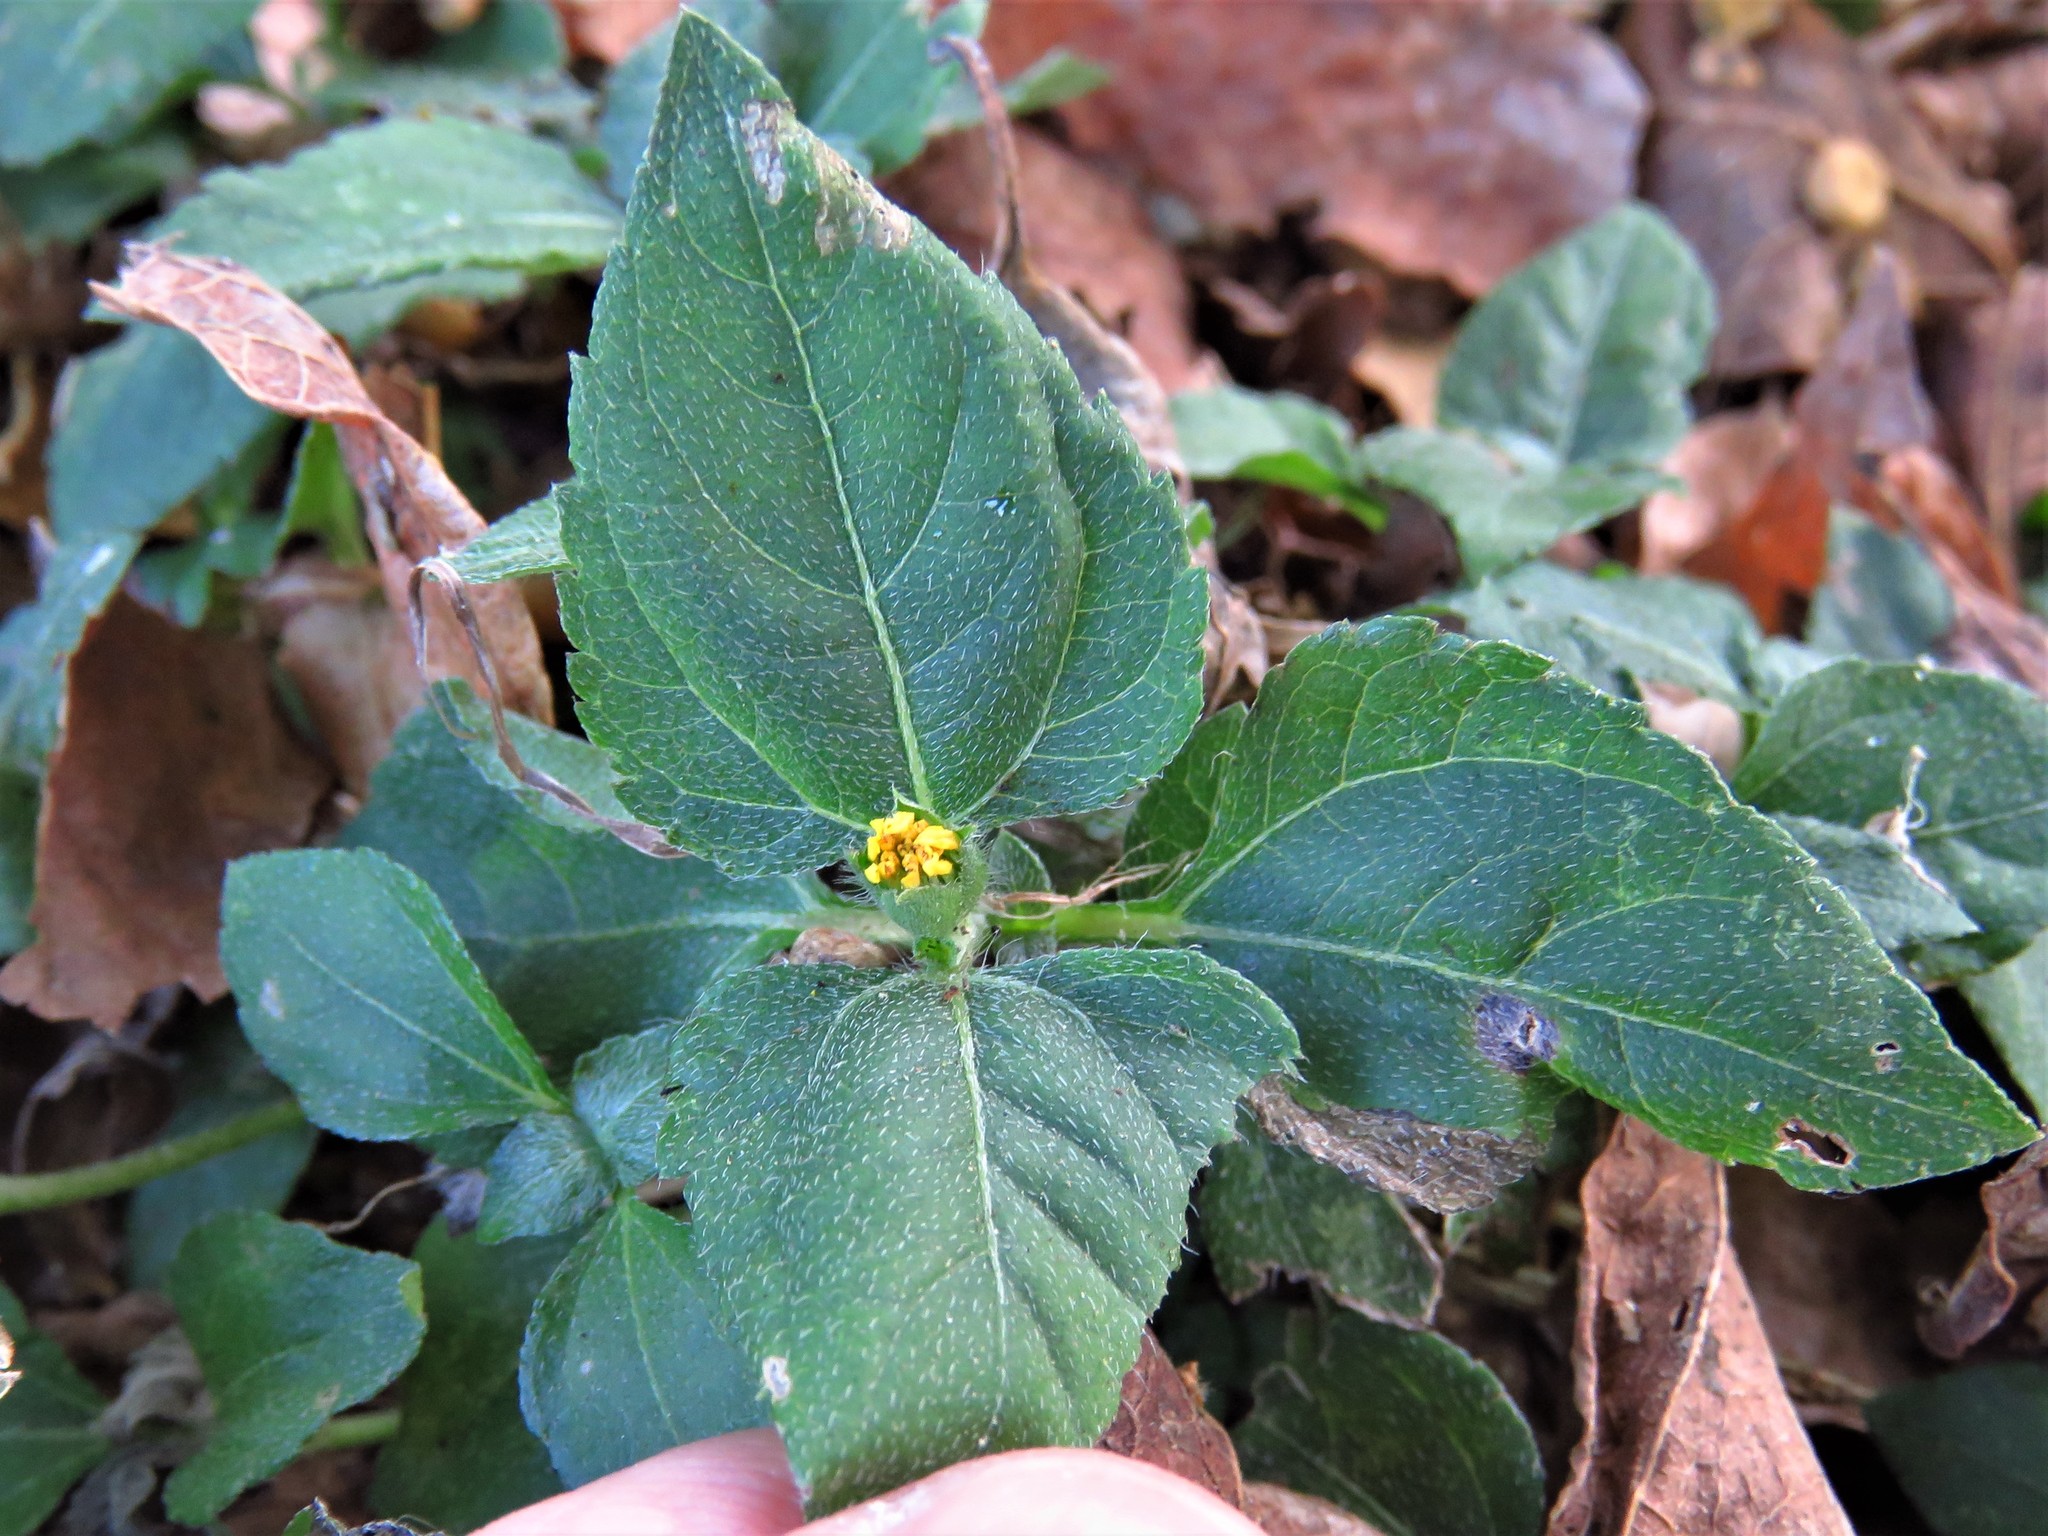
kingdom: Plantae
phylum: Tracheophyta
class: Magnoliopsida
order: Asterales
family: Asteraceae
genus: Calyptocarpus
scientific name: Calyptocarpus vialis
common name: Straggler daisy
